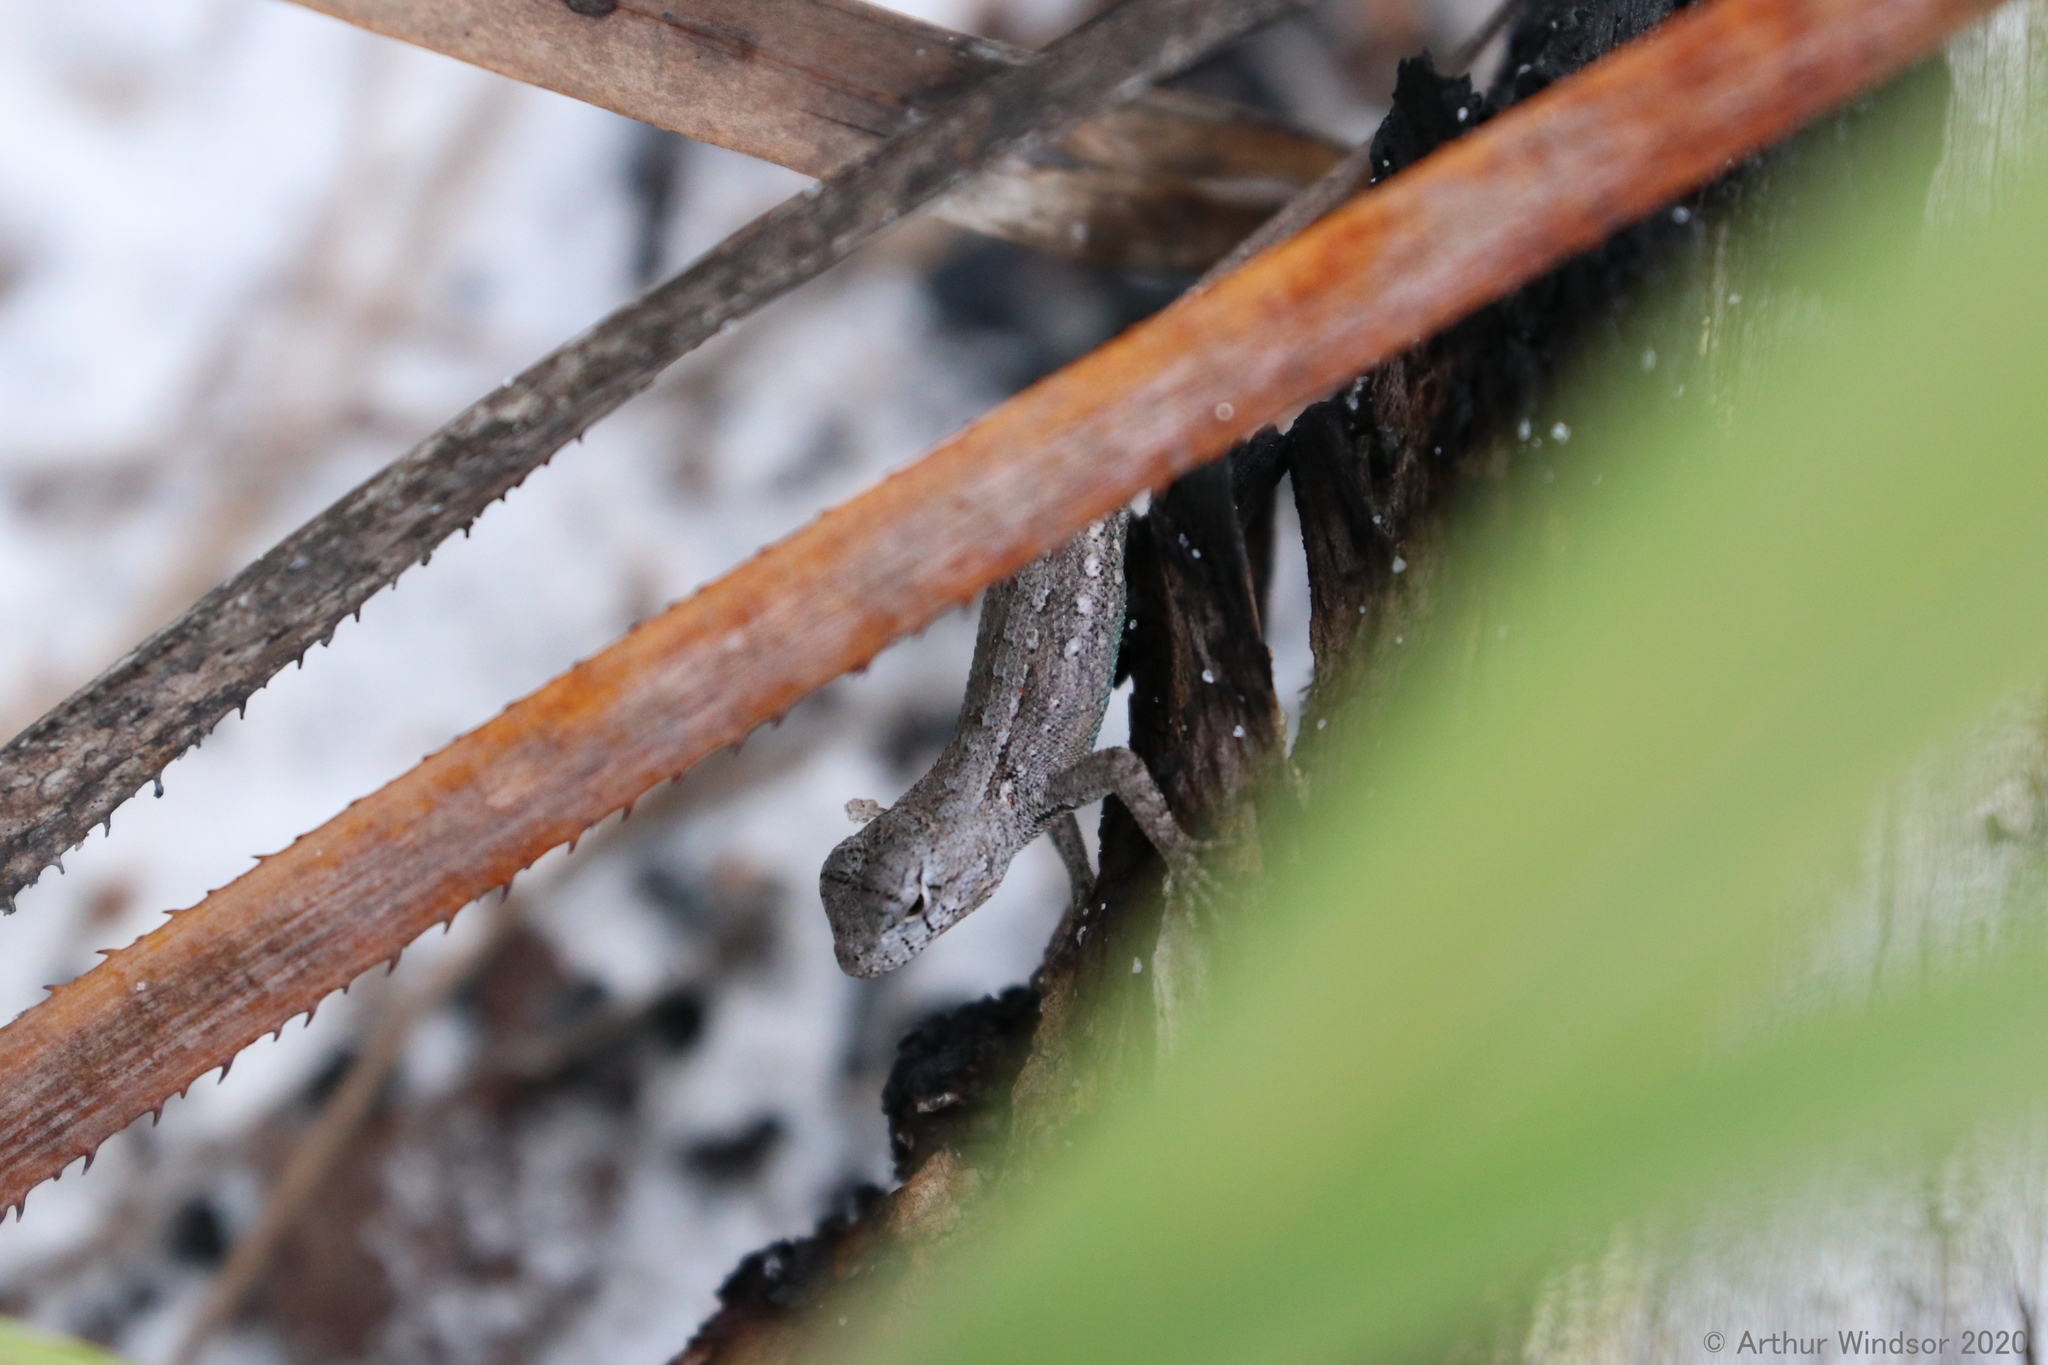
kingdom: Animalia
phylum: Chordata
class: Squamata
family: Phrynosomatidae
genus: Sceloporus
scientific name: Sceloporus woodi
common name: Florida scrub lizard
